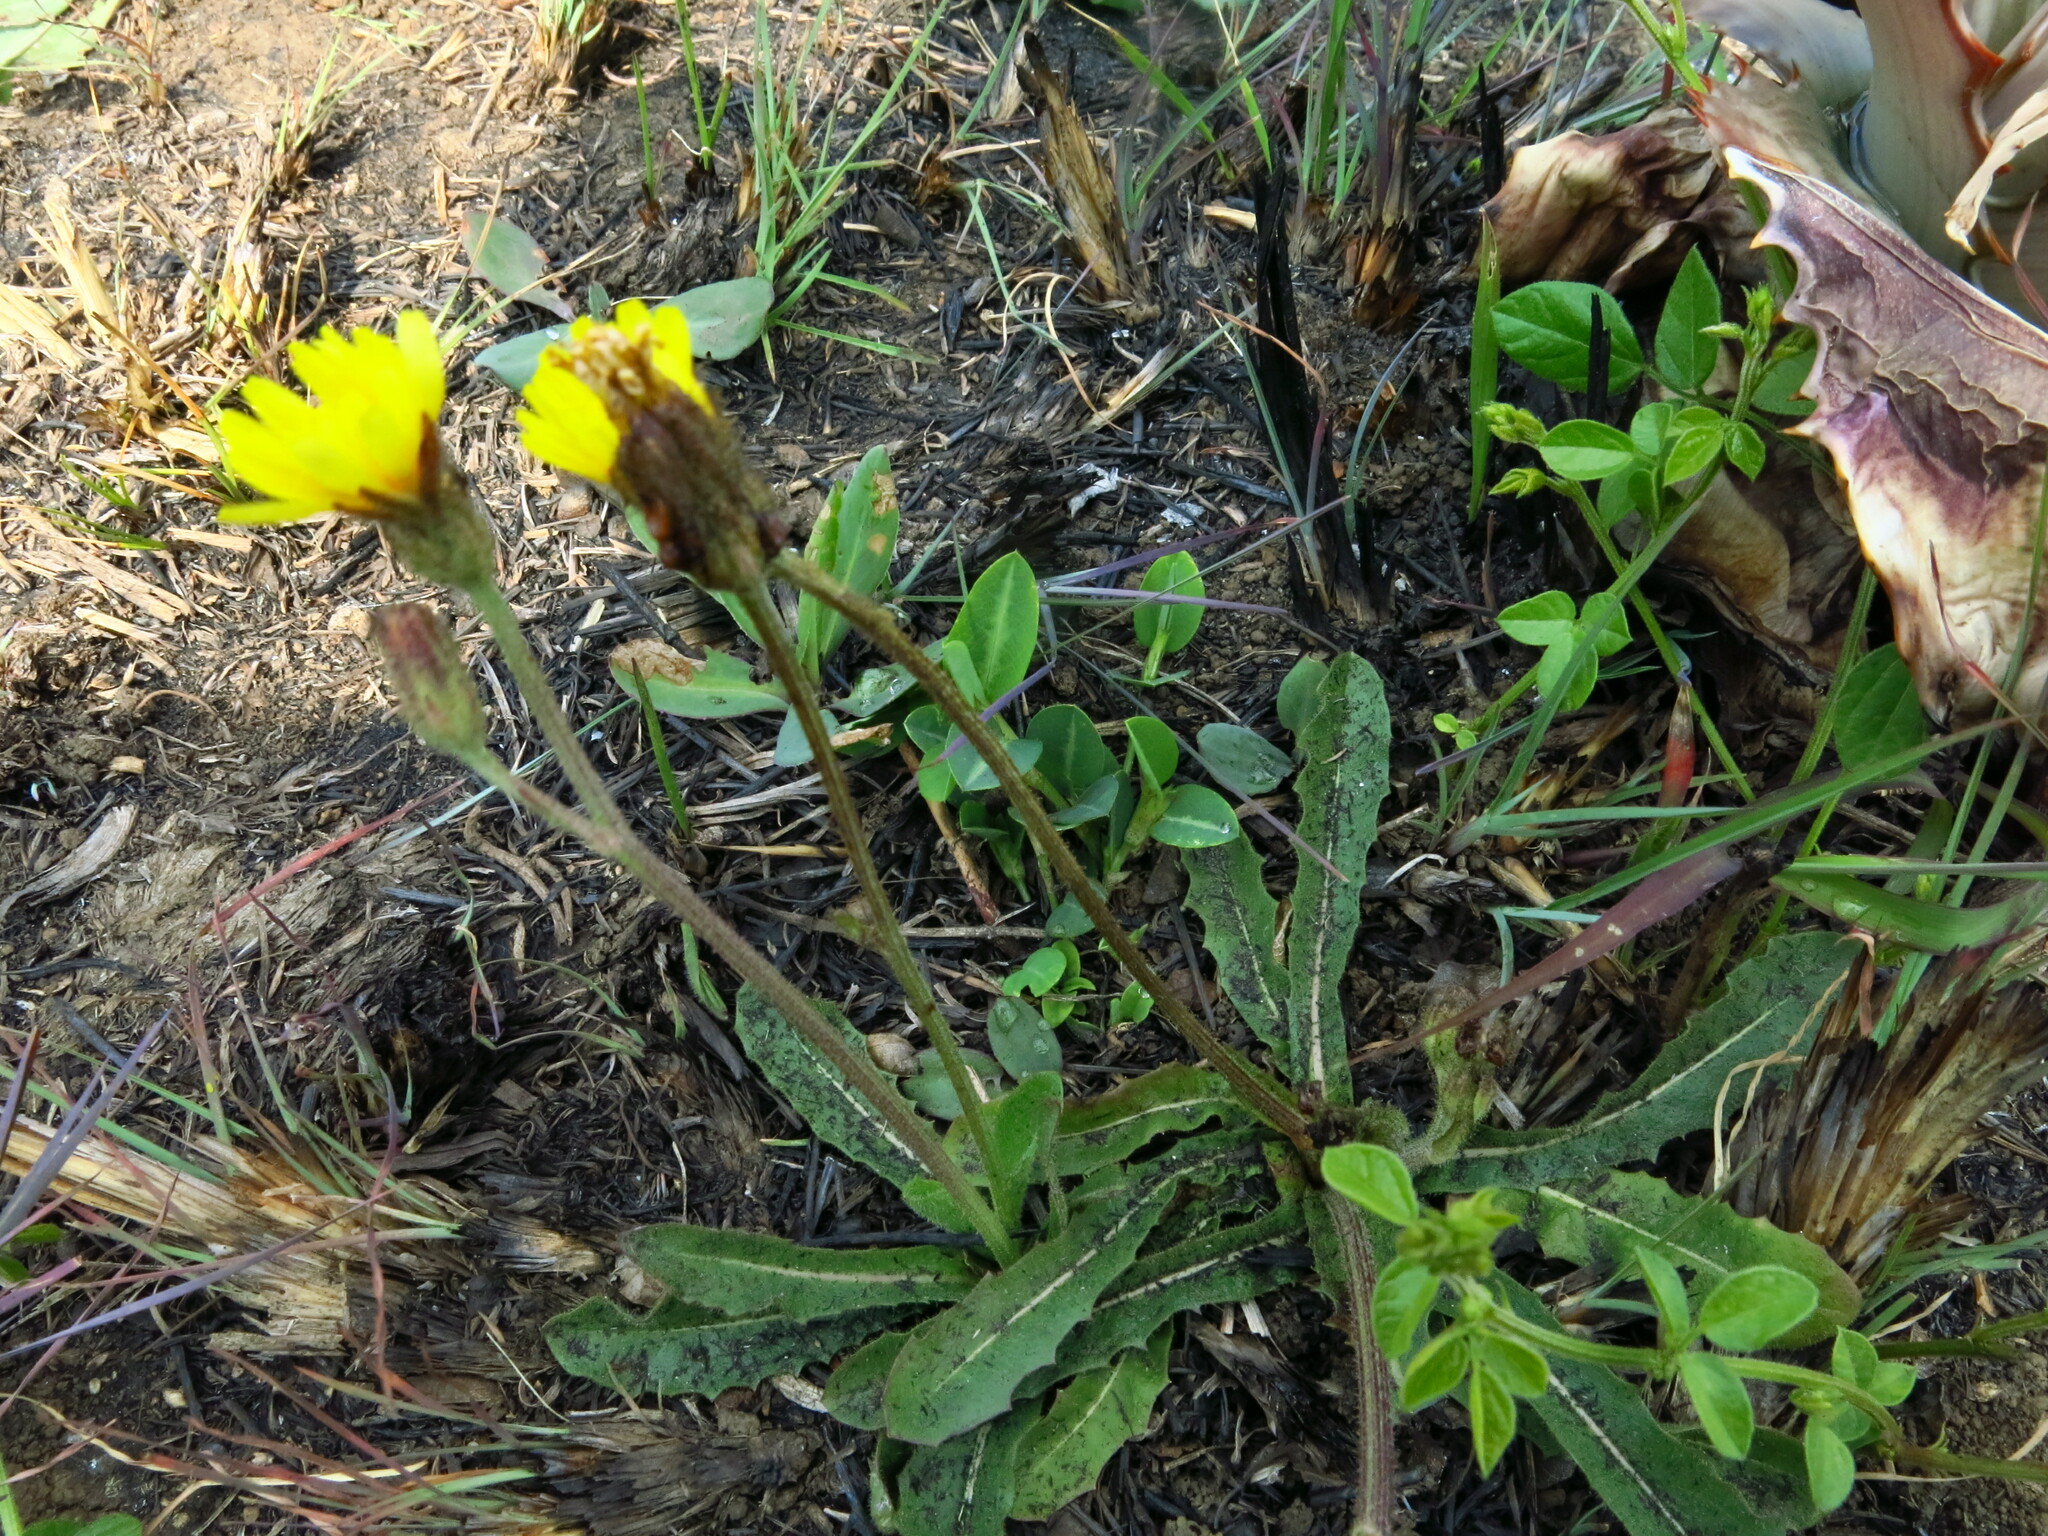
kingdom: Plantae
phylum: Tracheophyta
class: Magnoliopsida
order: Asterales
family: Asteraceae
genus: Hypochaeris
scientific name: Hypochaeris radicata
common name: Flatweed
